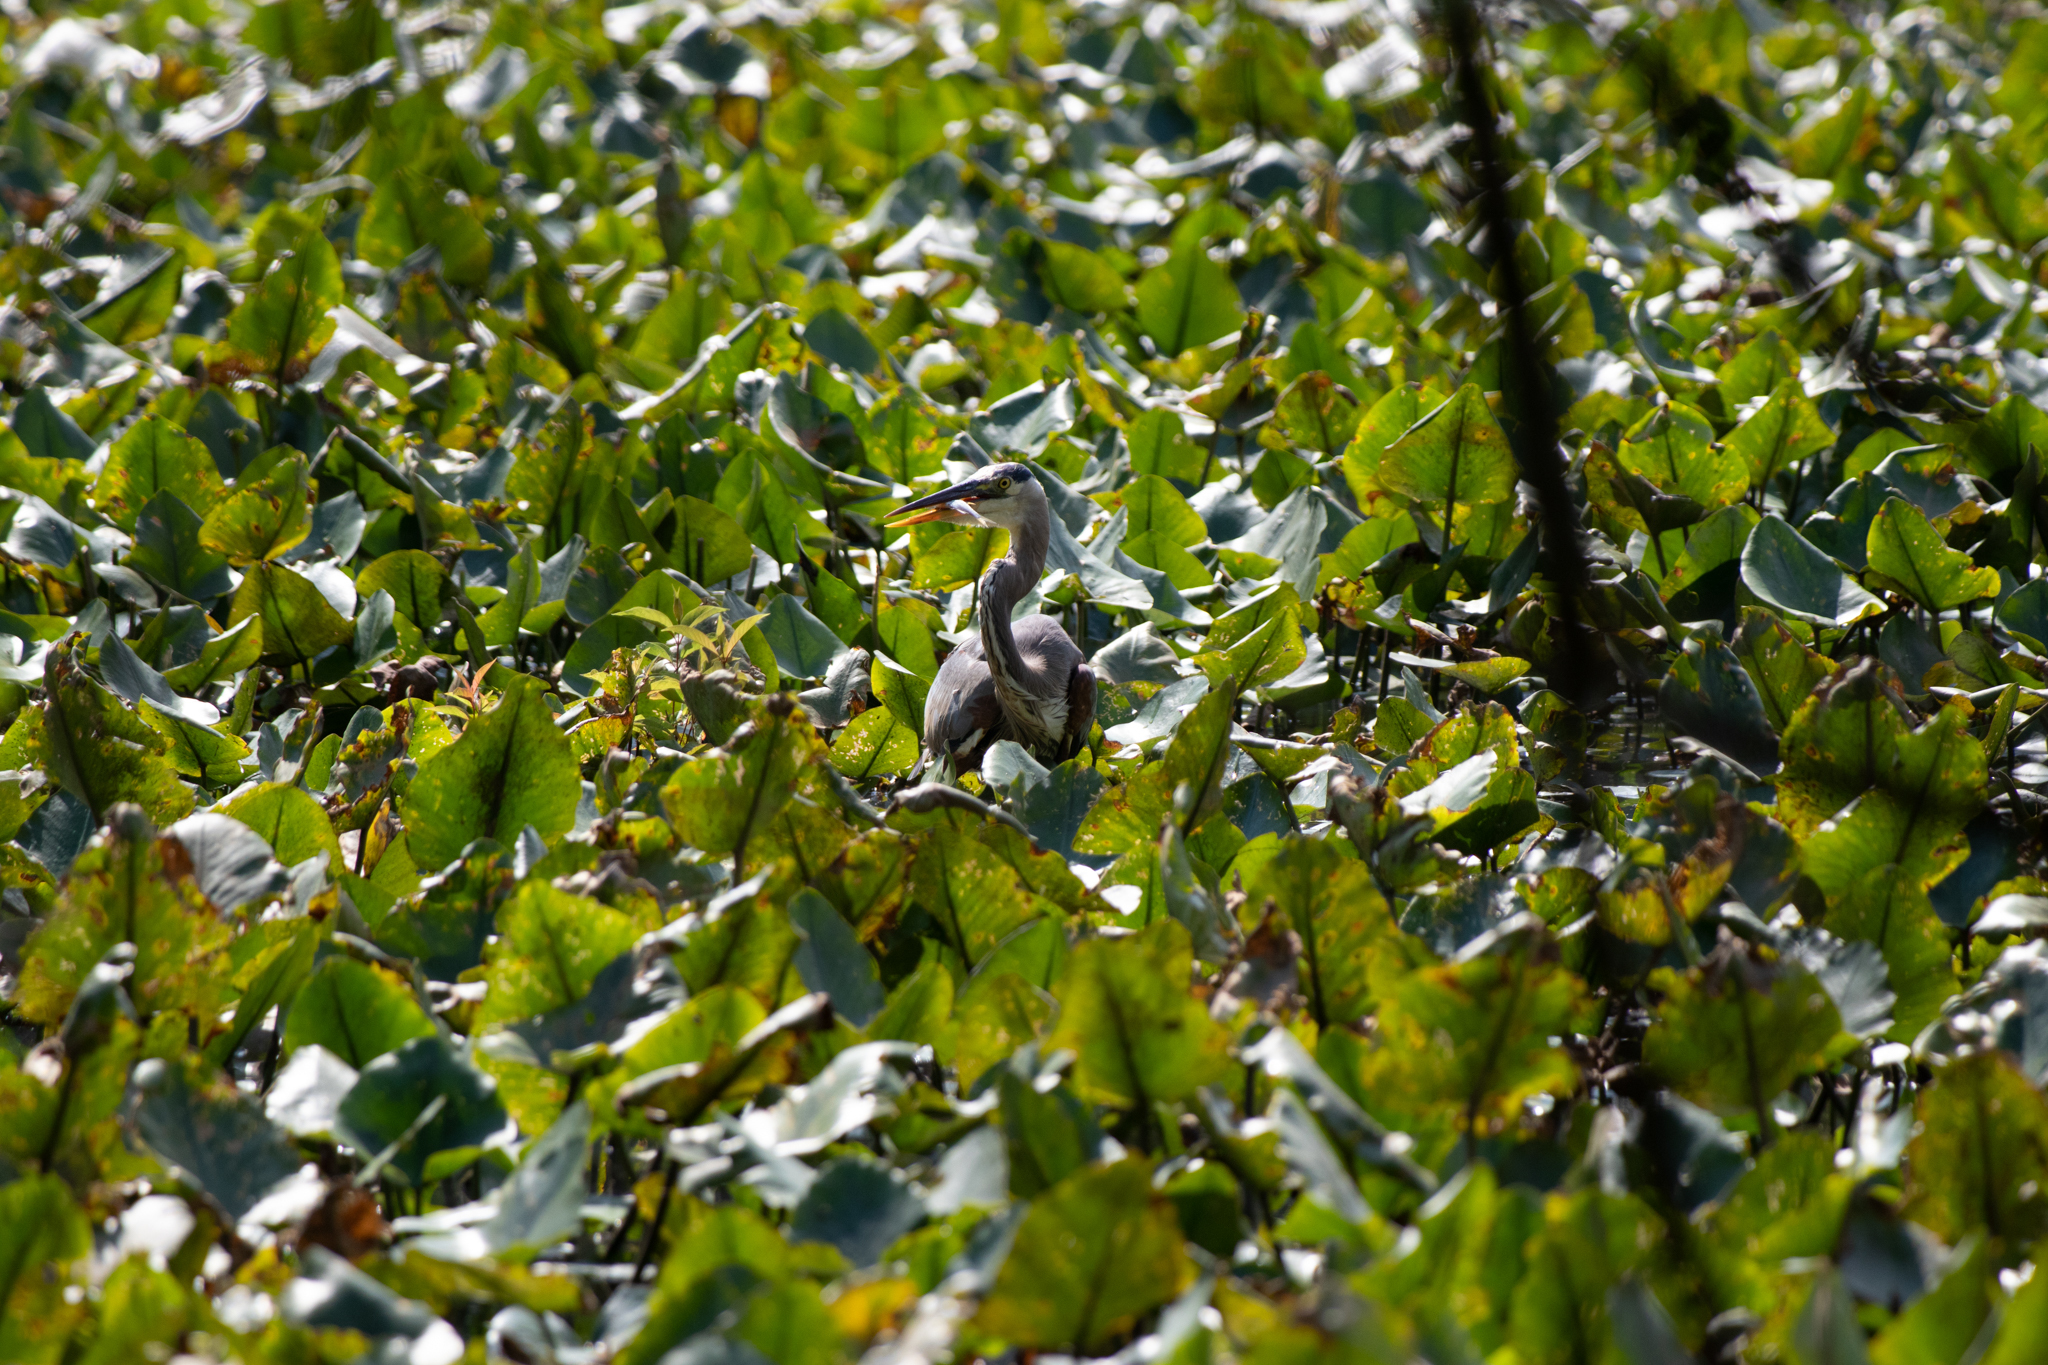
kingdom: Animalia
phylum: Chordata
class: Aves
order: Pelecaniformes
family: Ardeidae
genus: Ardea
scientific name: Ardea herodias
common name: Great blue heron
